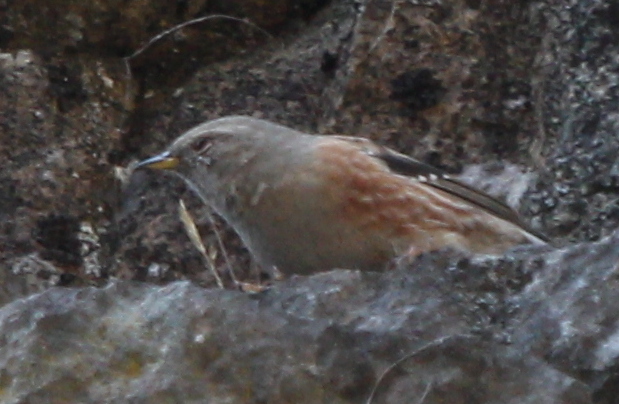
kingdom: Animalia
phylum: Chordata
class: Aves
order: Passeriformes
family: Prunellidae
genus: Prunella
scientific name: Prunella collaris
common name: Alpine accentor
